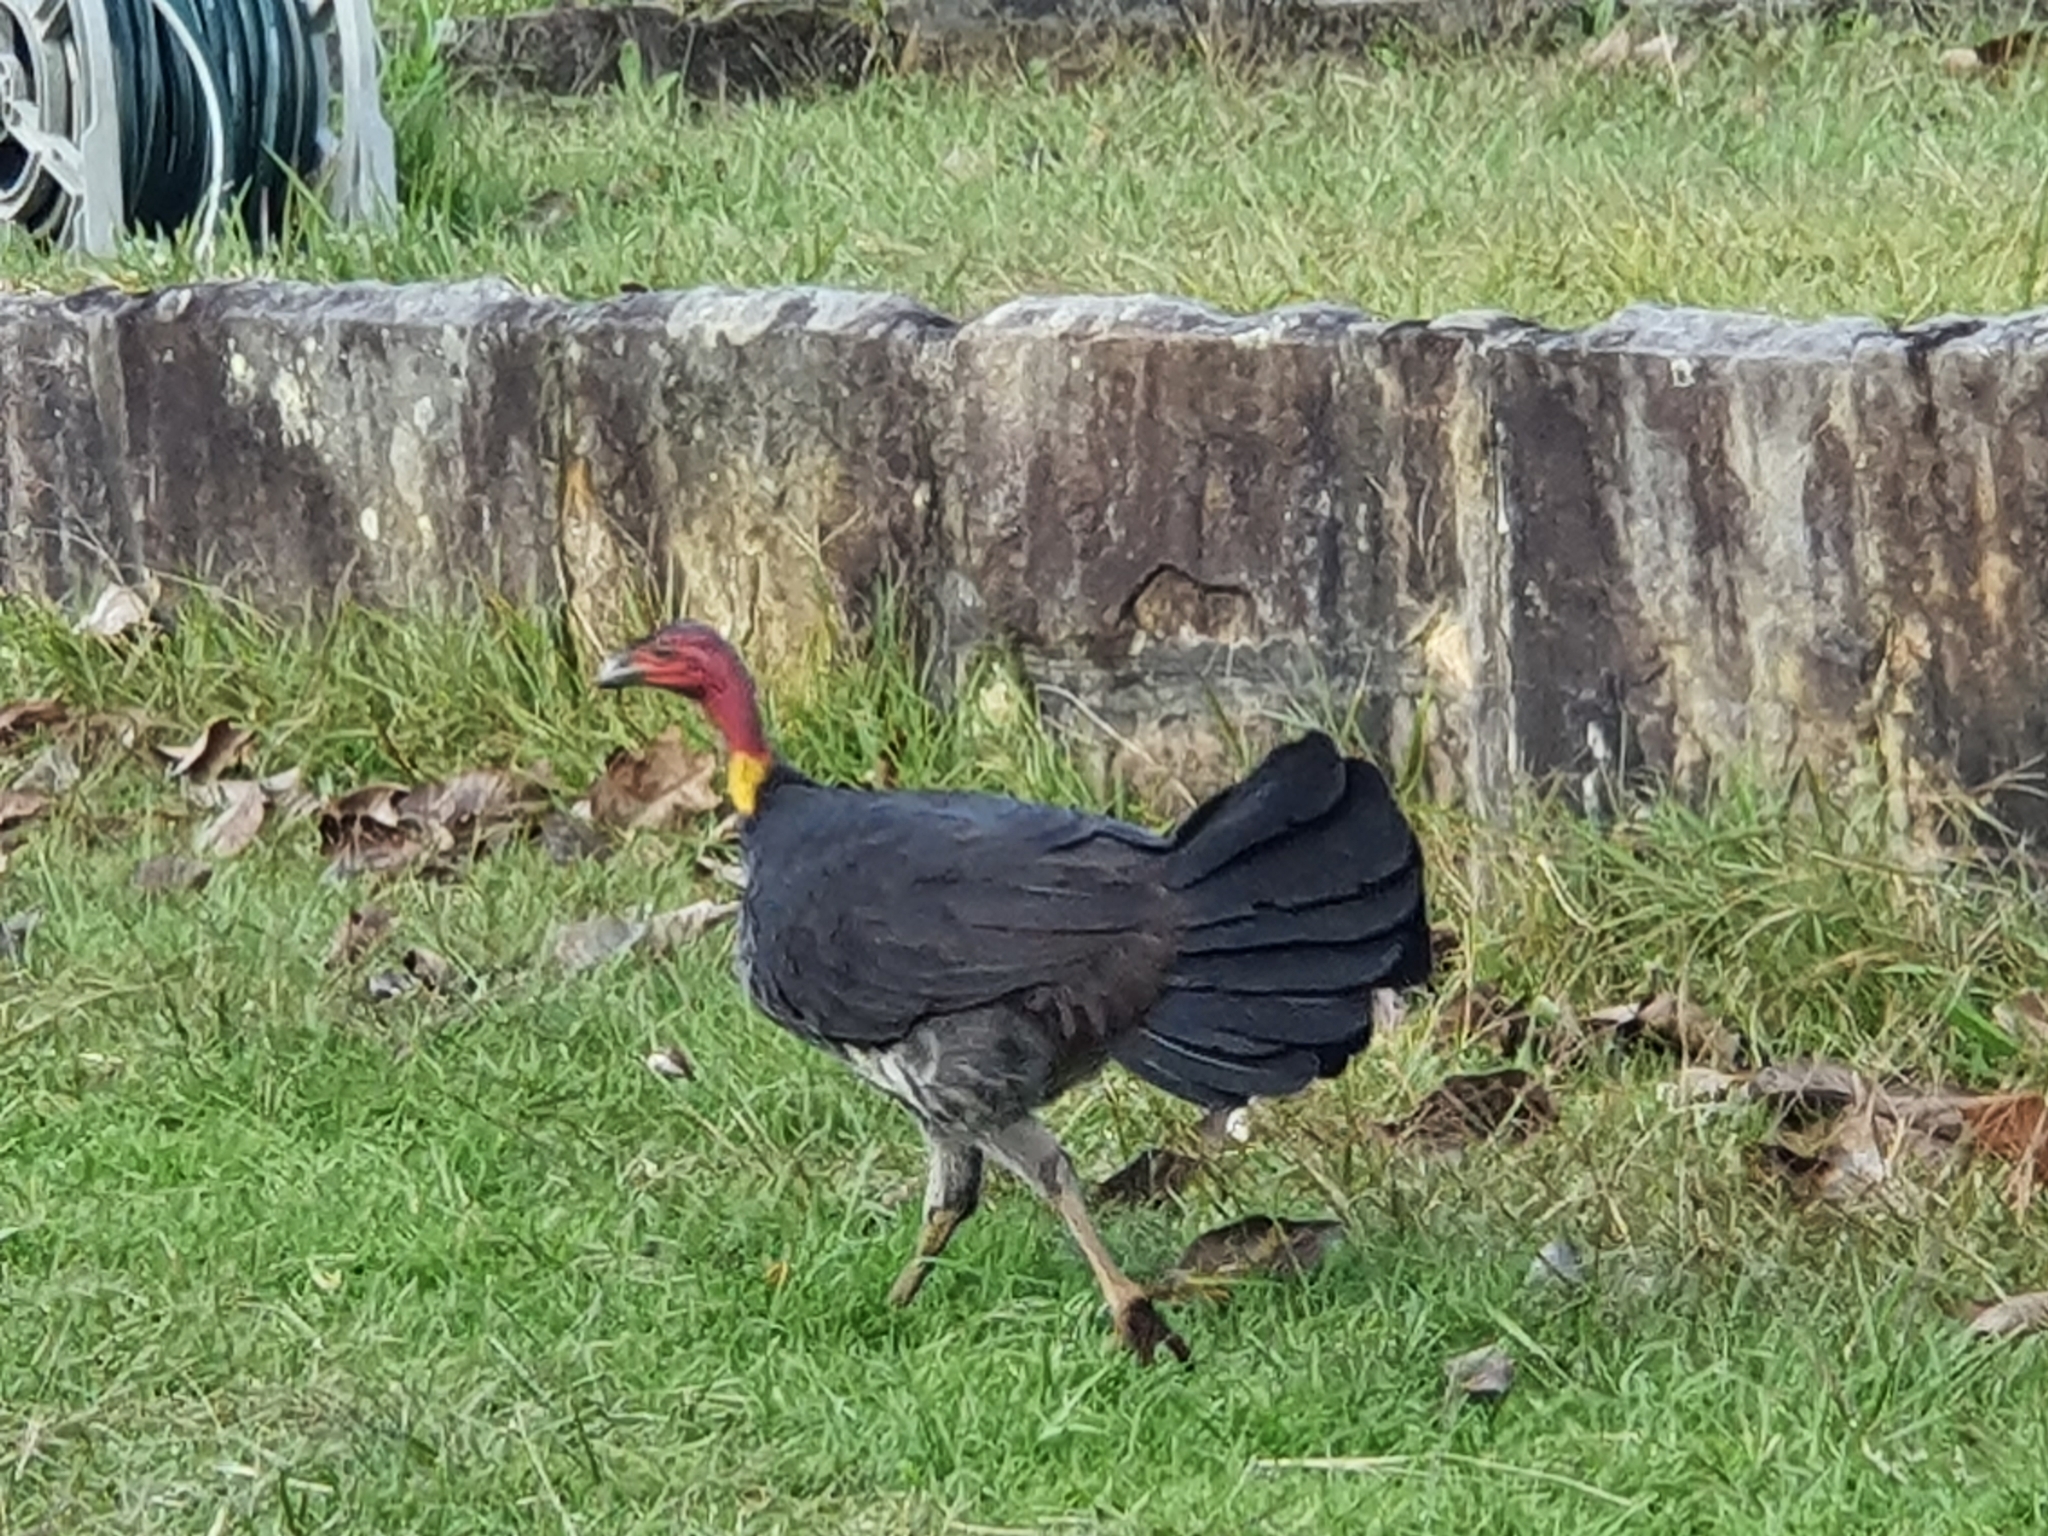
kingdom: Animalia
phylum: Chordata
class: Aves
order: Galliformes
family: Megapodiidae
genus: Alectura
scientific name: Alectura lathami
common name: Australian brushturkey
